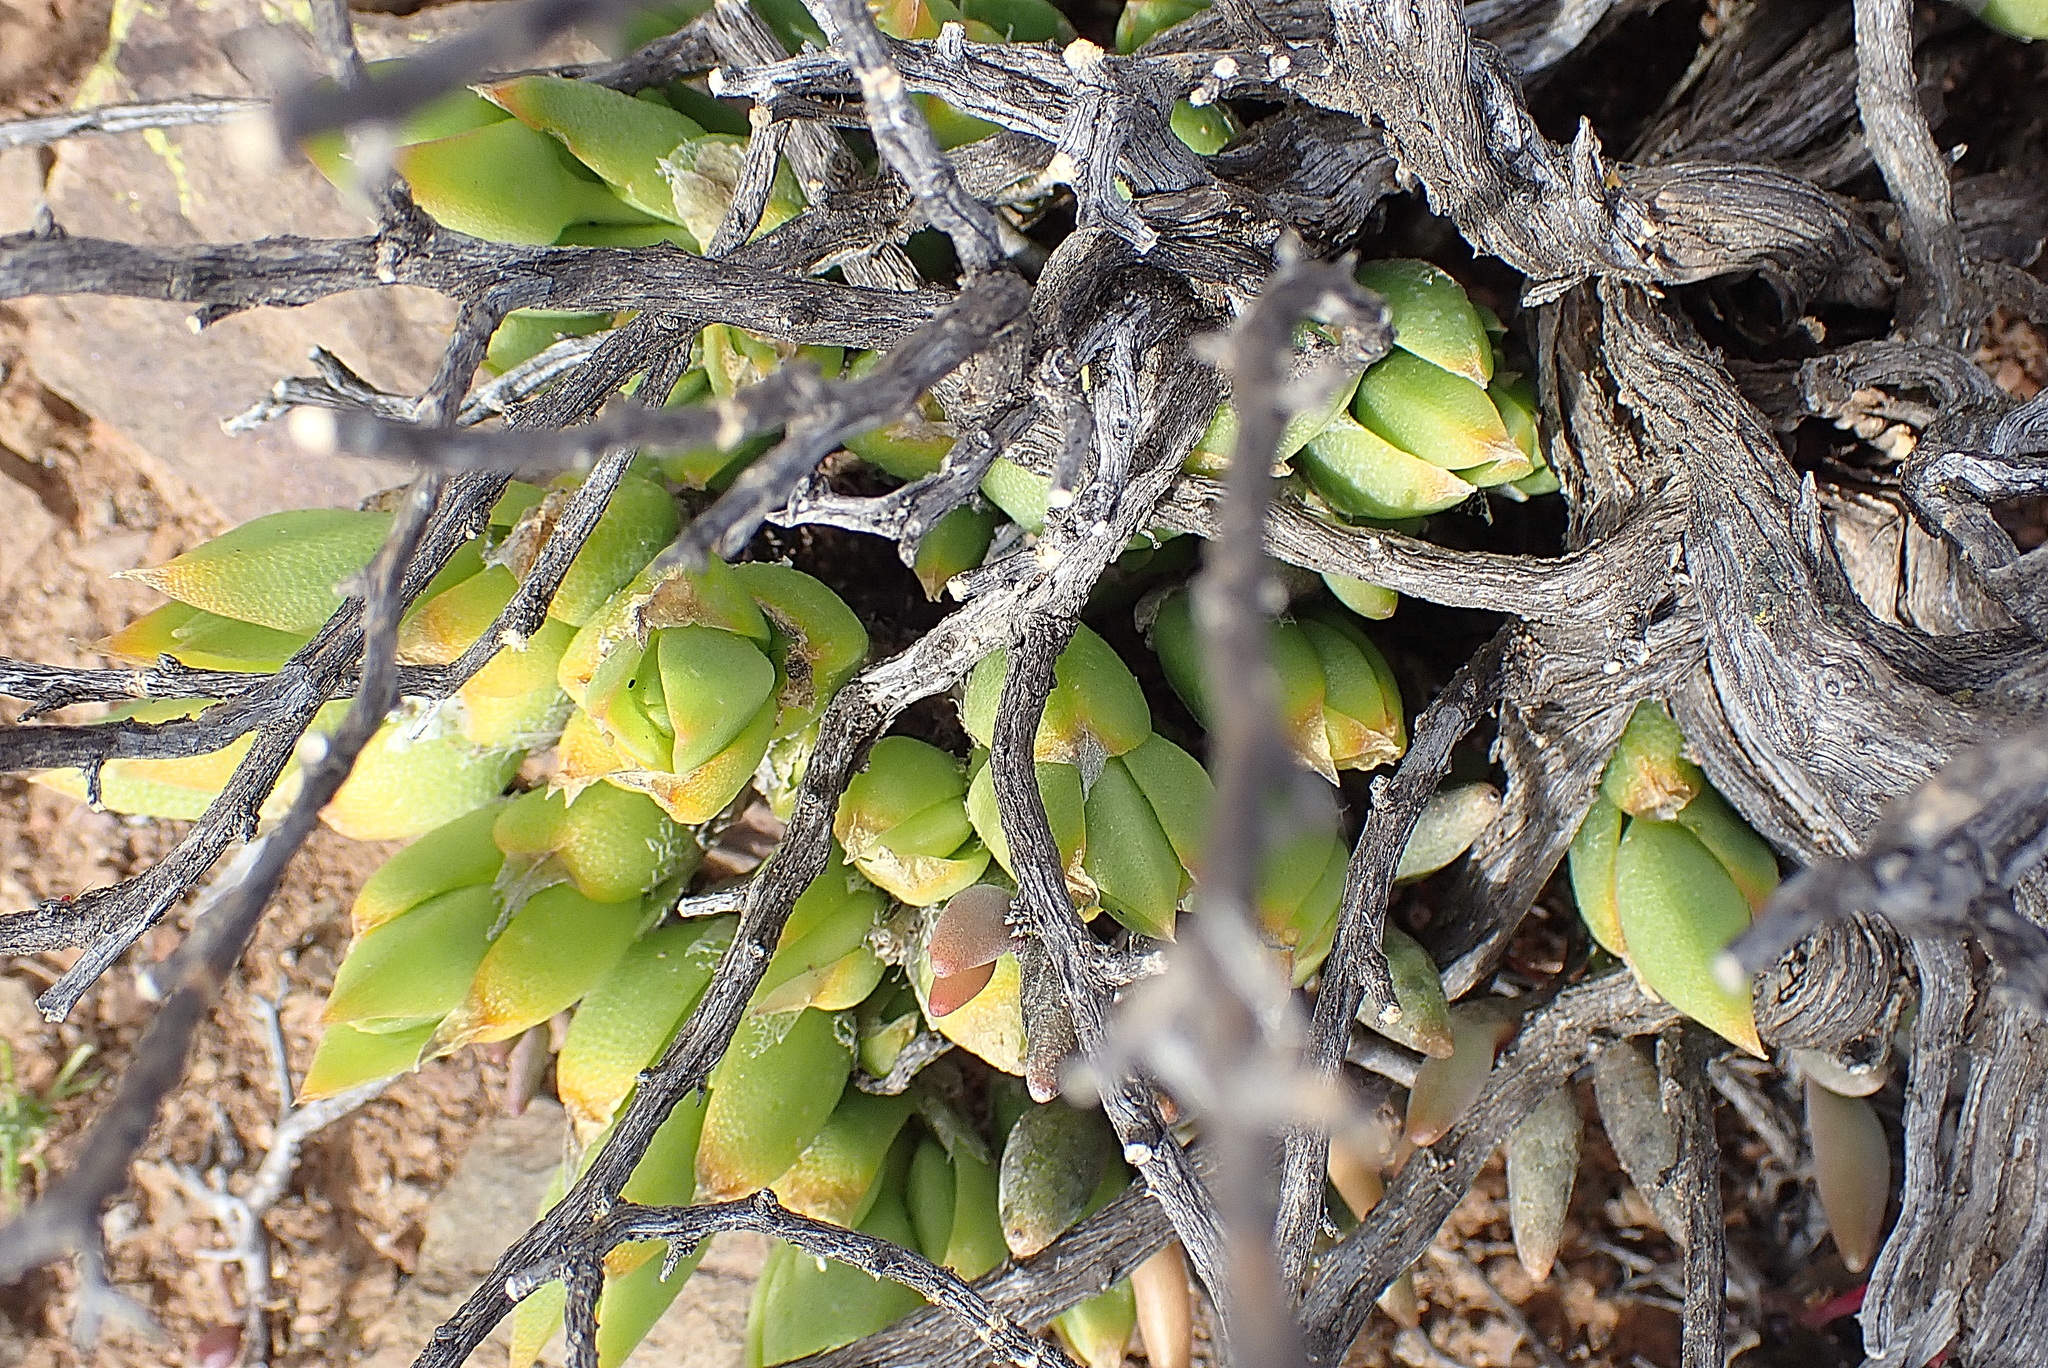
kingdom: Plantae
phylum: Tracheophyta
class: Magnoliopsida
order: Caryophyllales
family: Aizoaceae
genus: Mesembryanthemum
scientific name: Mesembryanthemum tortuosum
